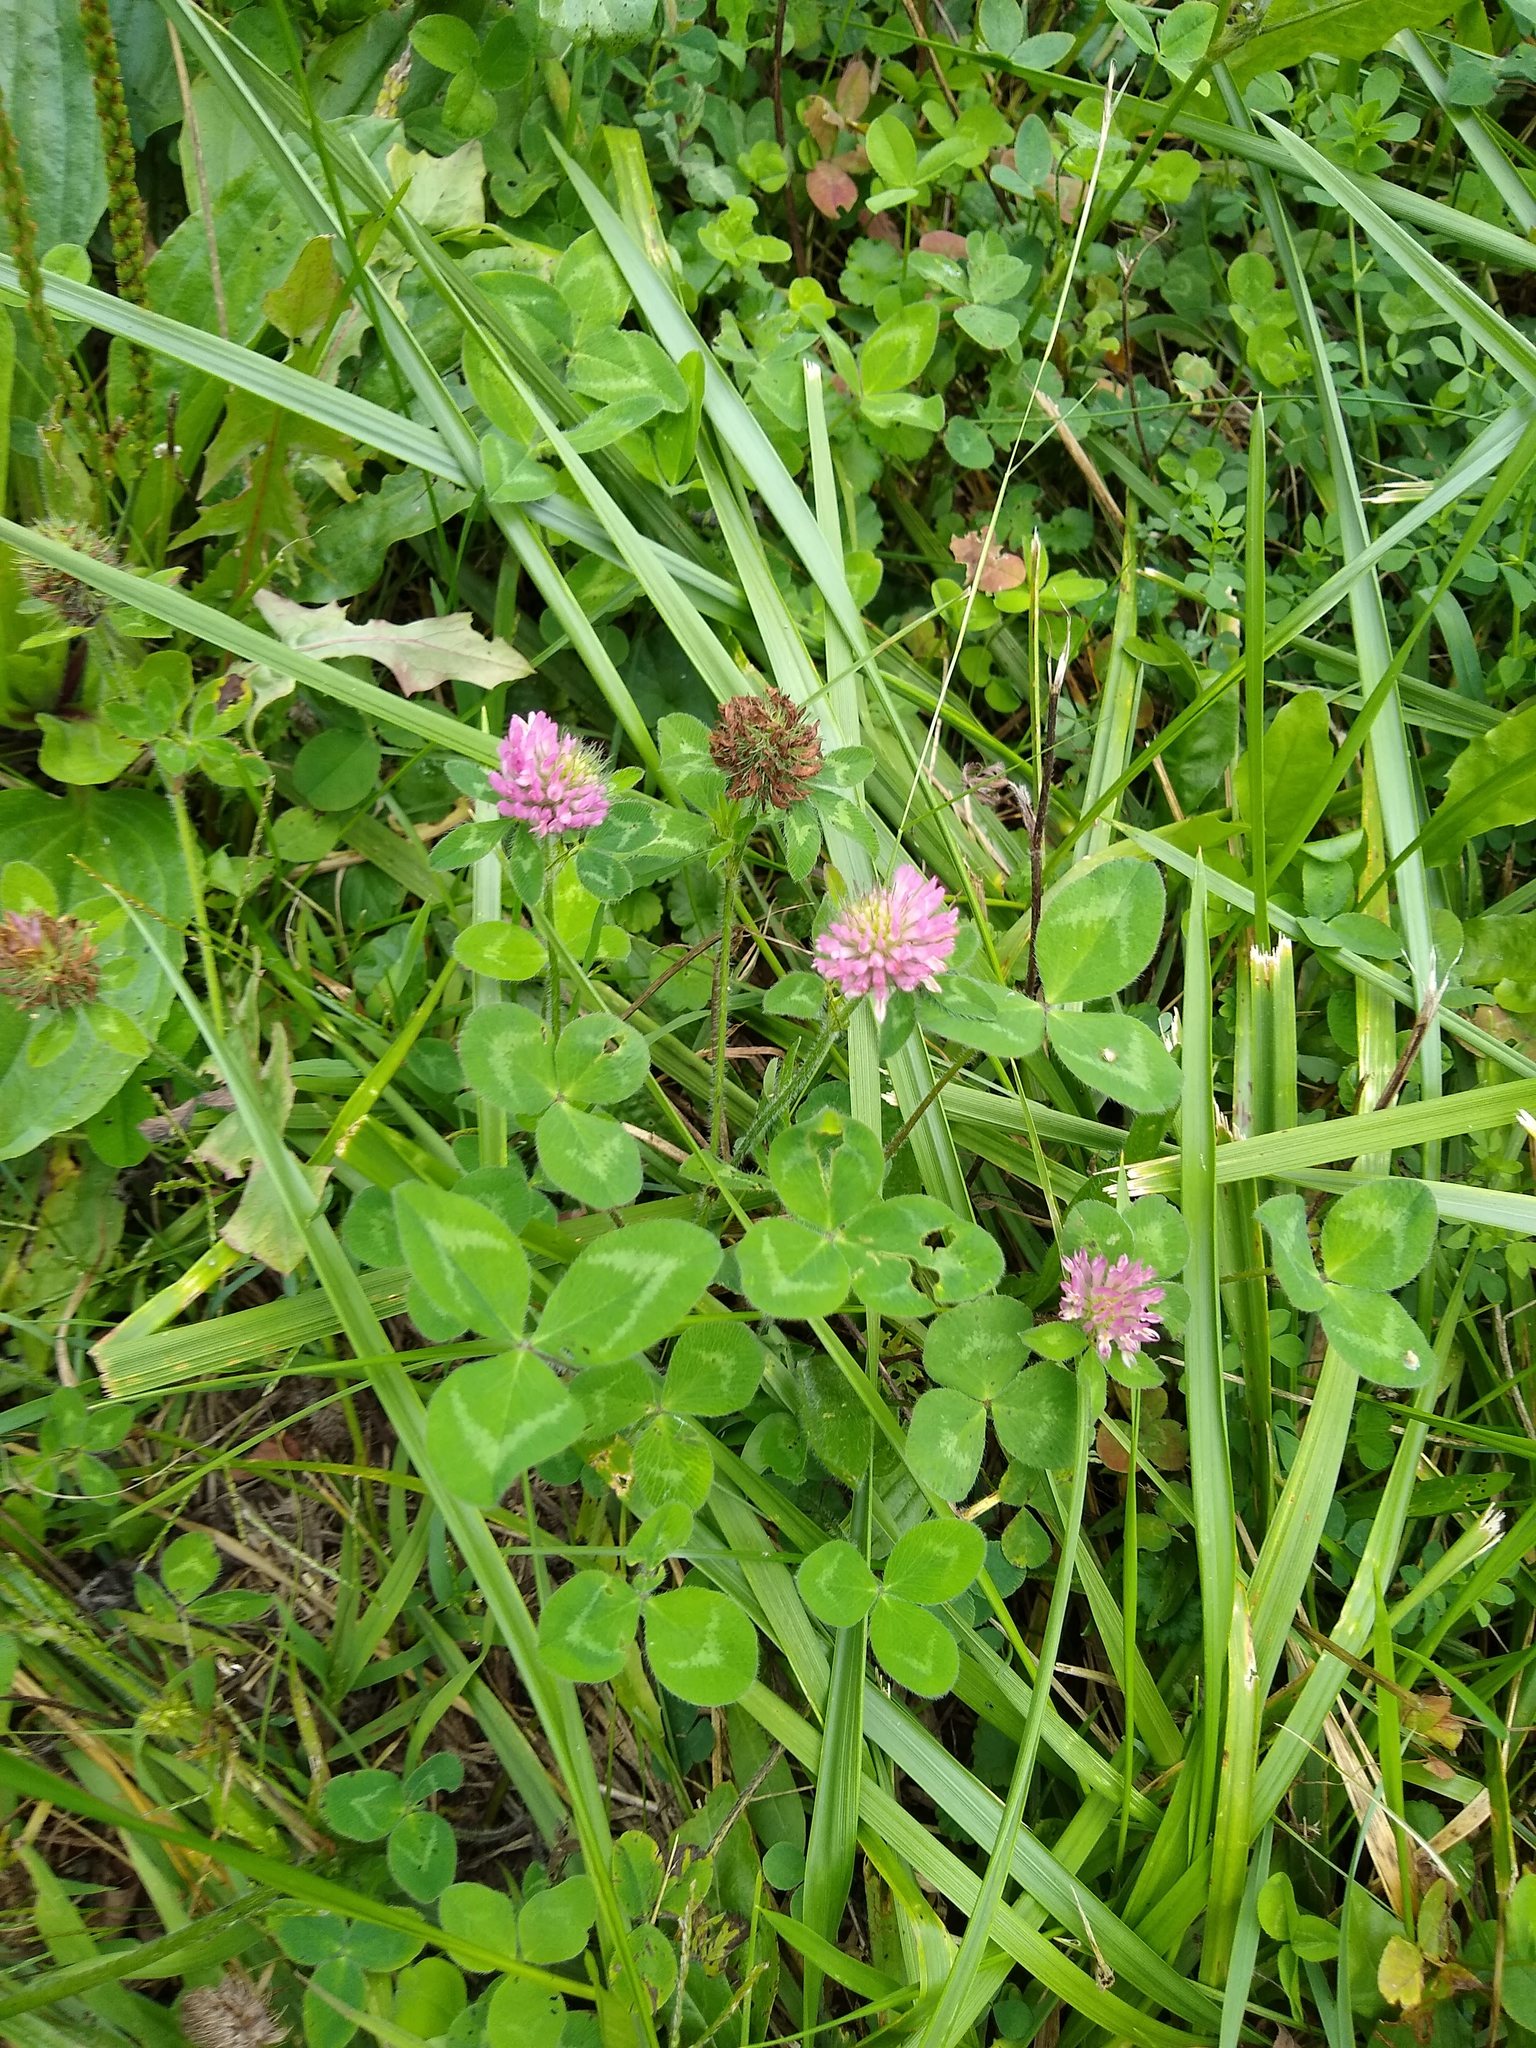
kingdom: Plantae
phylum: Tracheophyta
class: Magnoliopsida
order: Fabales
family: Fabaceae
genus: Trifolium
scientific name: Trifolium pratense
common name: Red clover
